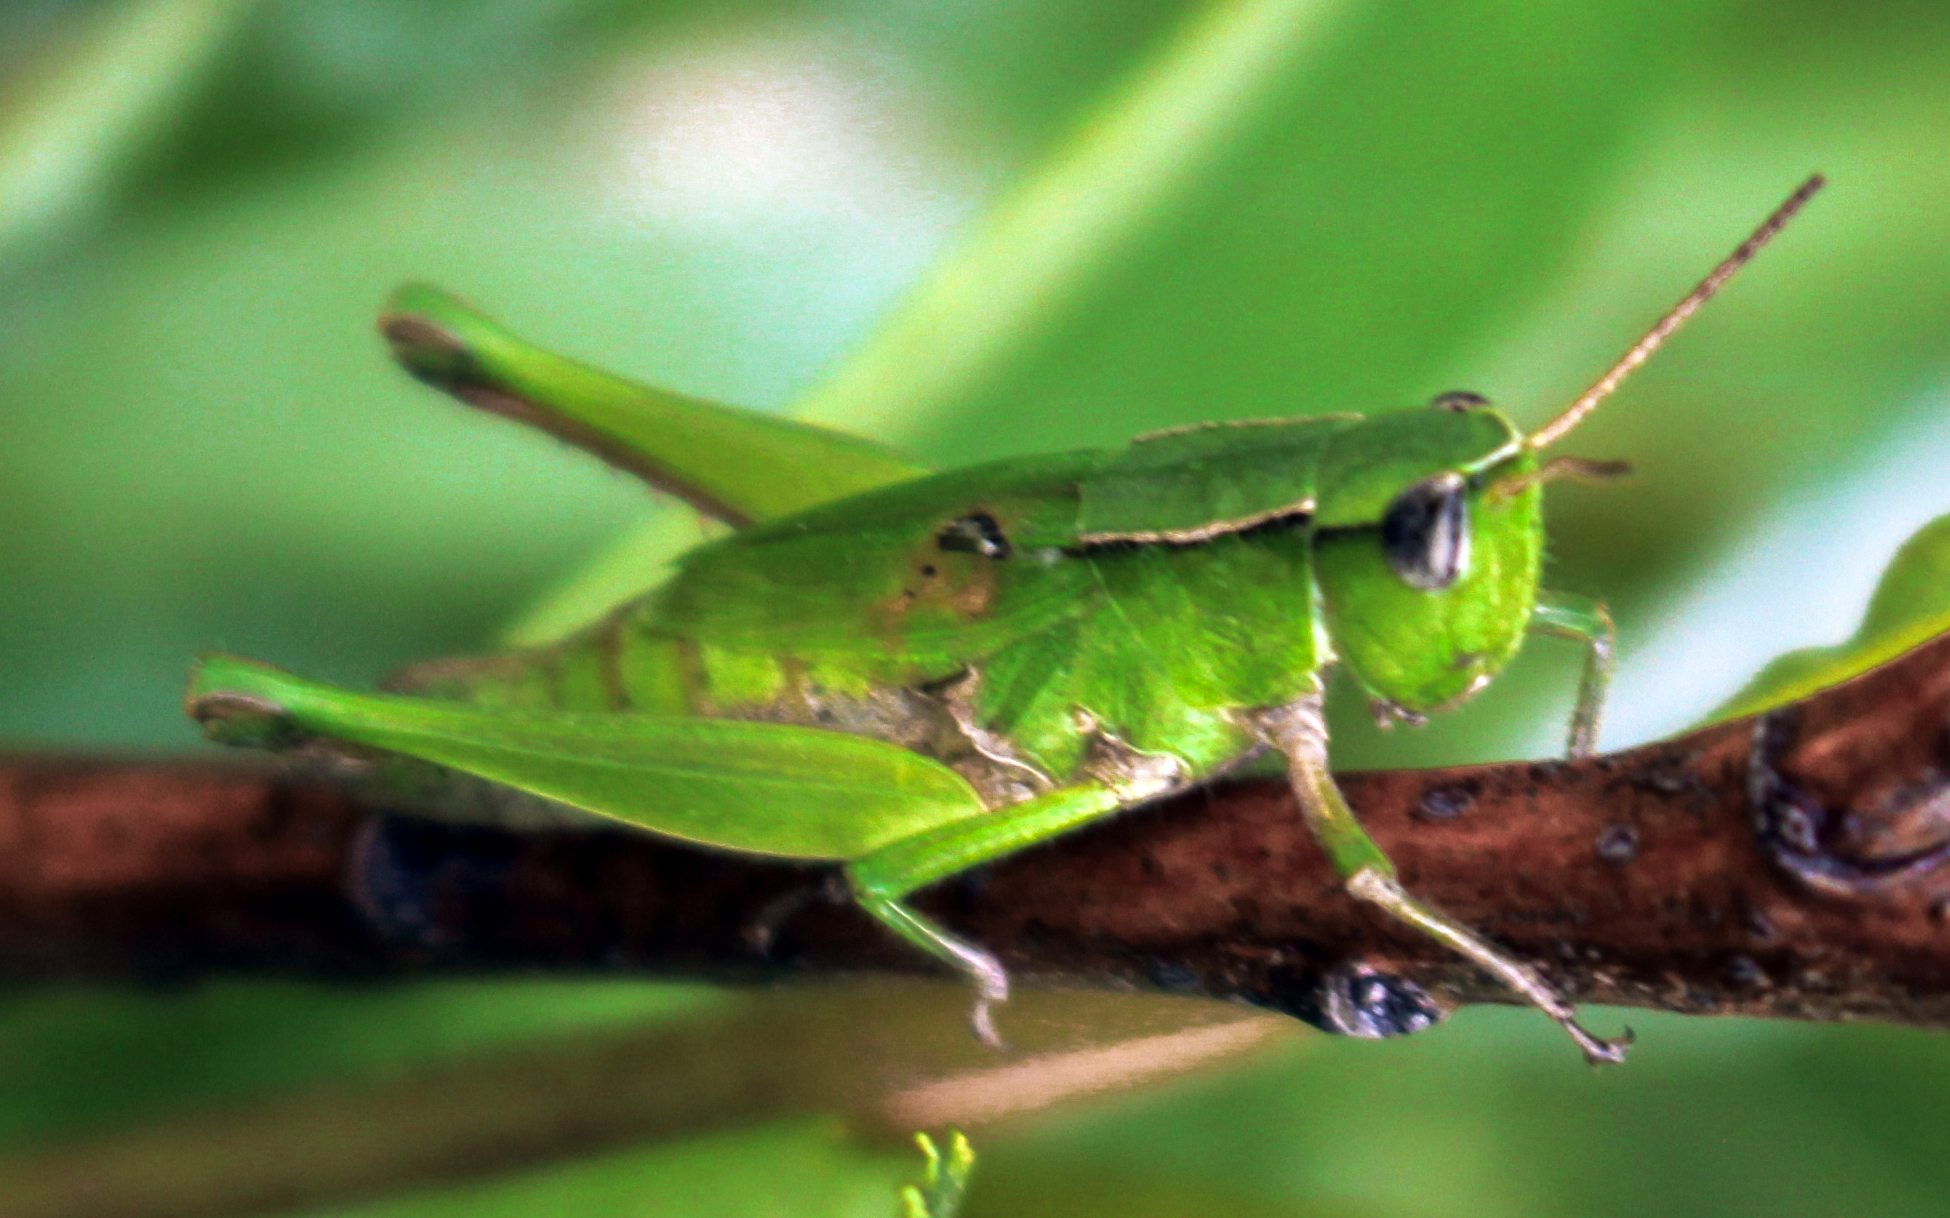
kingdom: Animalia
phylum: Arthropoda
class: Insecta
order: Orthoptera
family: Acrididae
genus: Dichromorpha
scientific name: Dichromorpha viridis
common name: Short-winged green grasshopper
